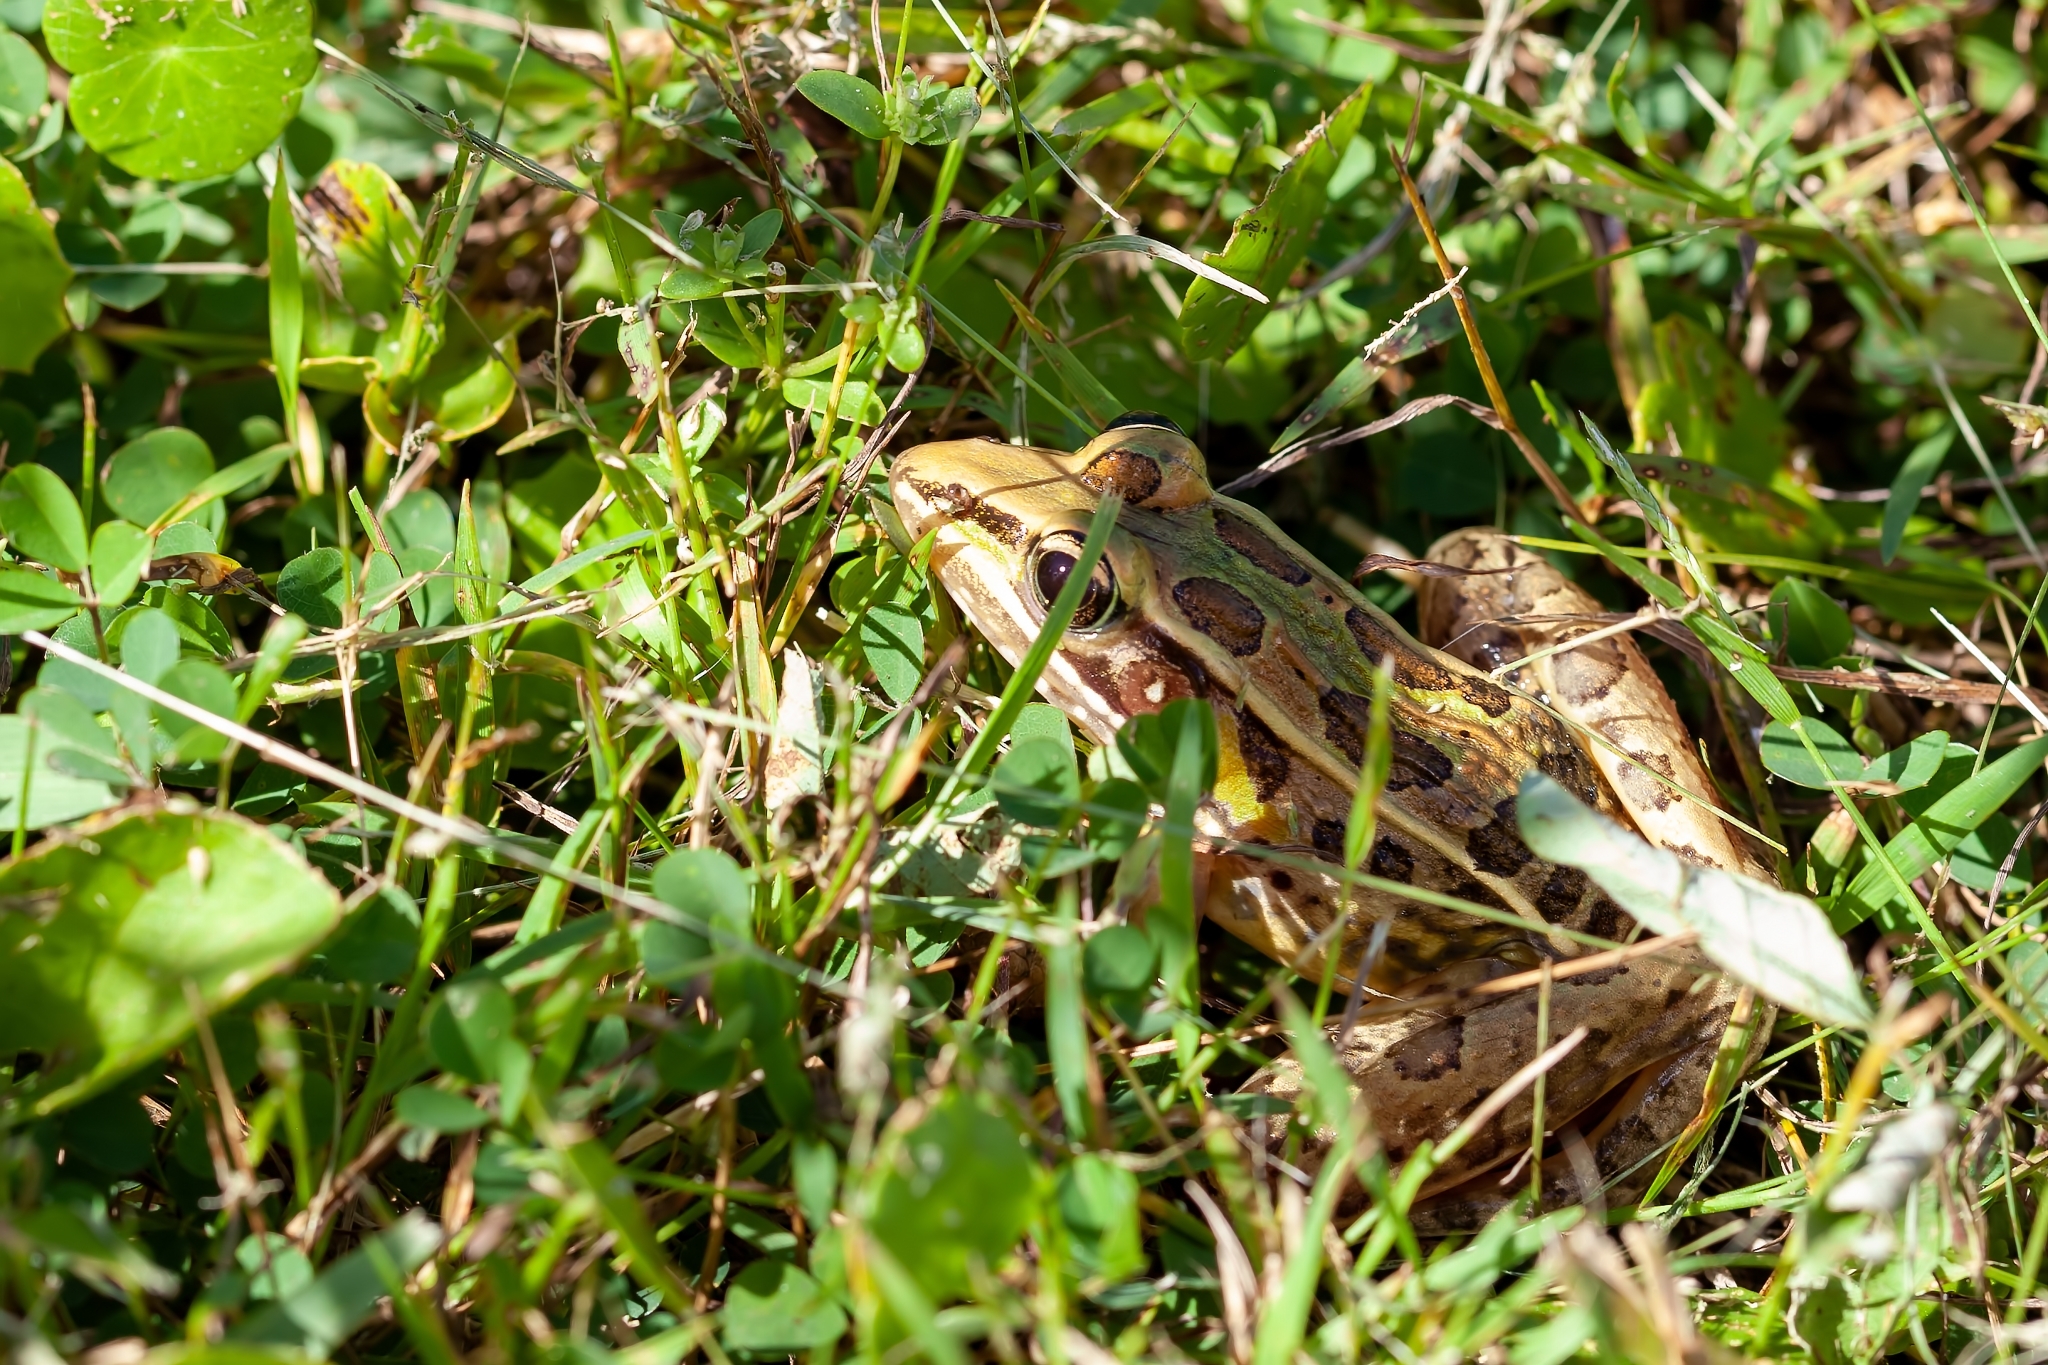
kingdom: Animalia
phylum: Chordata
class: Amphibia
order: Anura
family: Ranidae
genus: Lithobates
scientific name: Lithobates sphenocephalus
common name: Southern leopard frog
